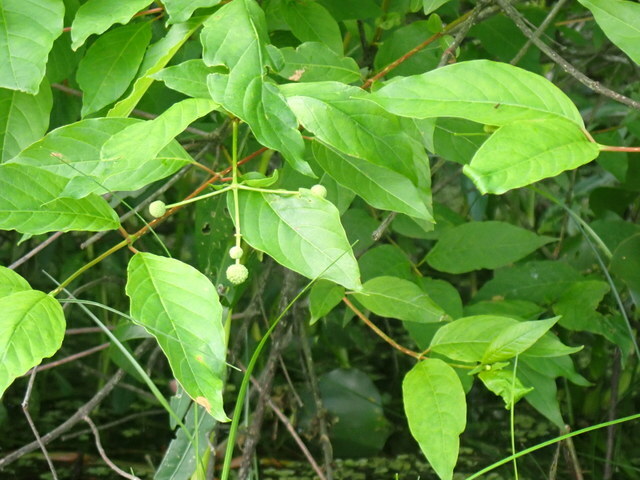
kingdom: Plantae
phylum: Tracheophyta
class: Magnoliopsida
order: Gentianales
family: Rubiaceae
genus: Cephalanthus
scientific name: Cephalanthus occidentalis
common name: Button-willow
